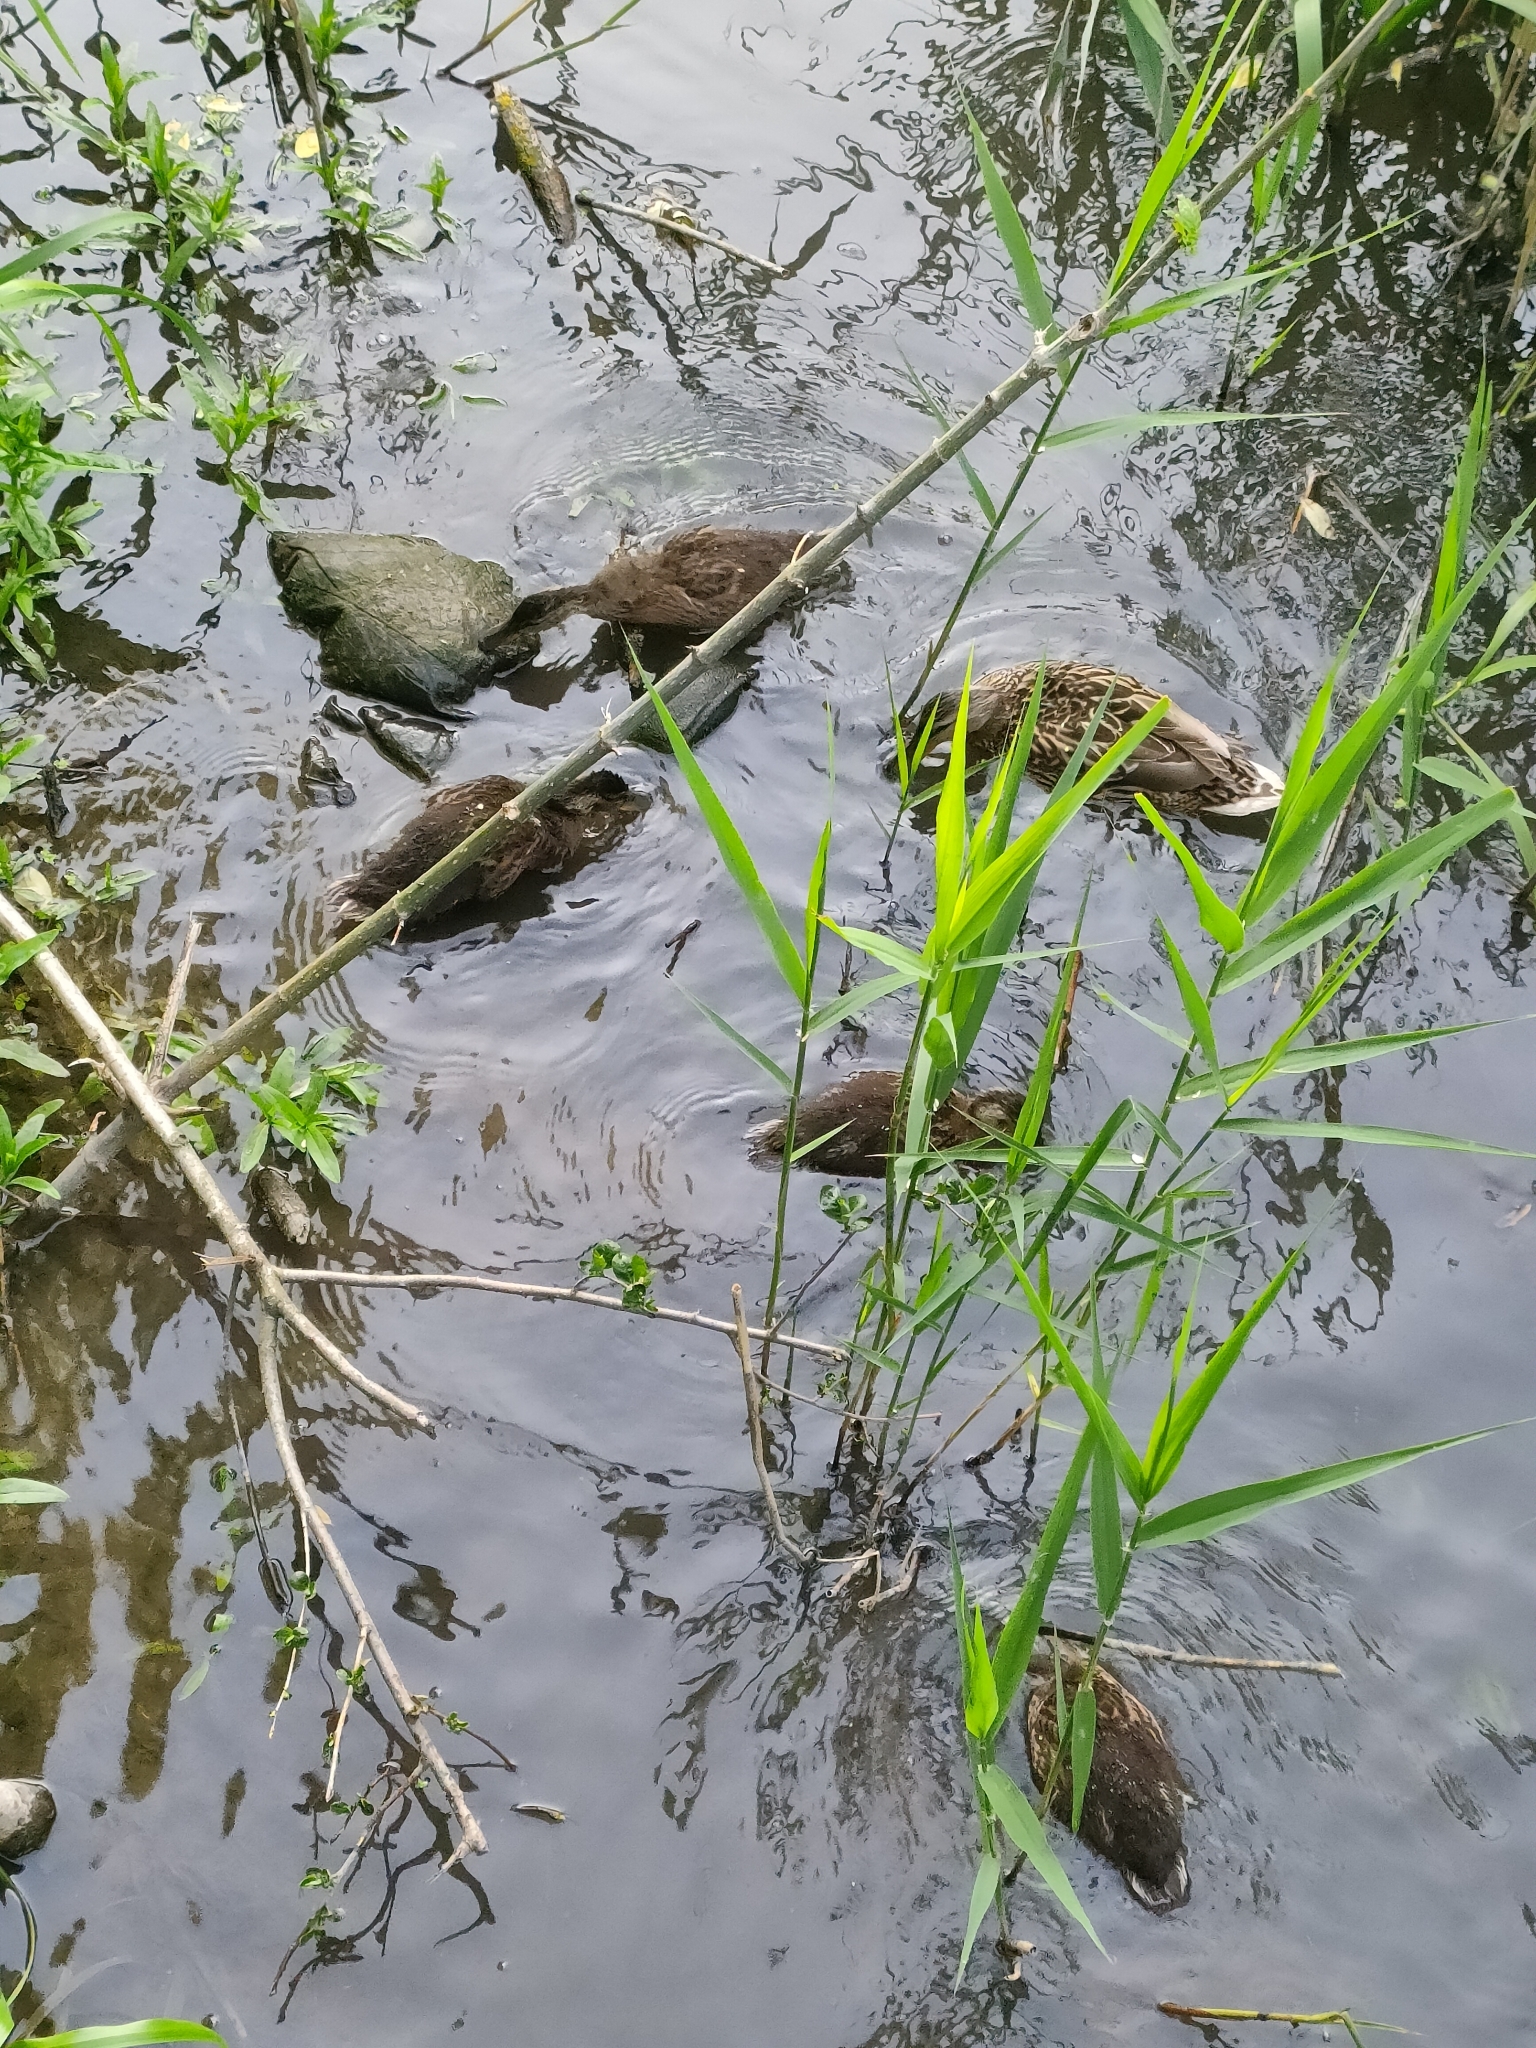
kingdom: Animalia
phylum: Chordata
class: Aves
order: Anseriformes
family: Anatidae
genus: Anas
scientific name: Anas platyrhynchos
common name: Mallard
